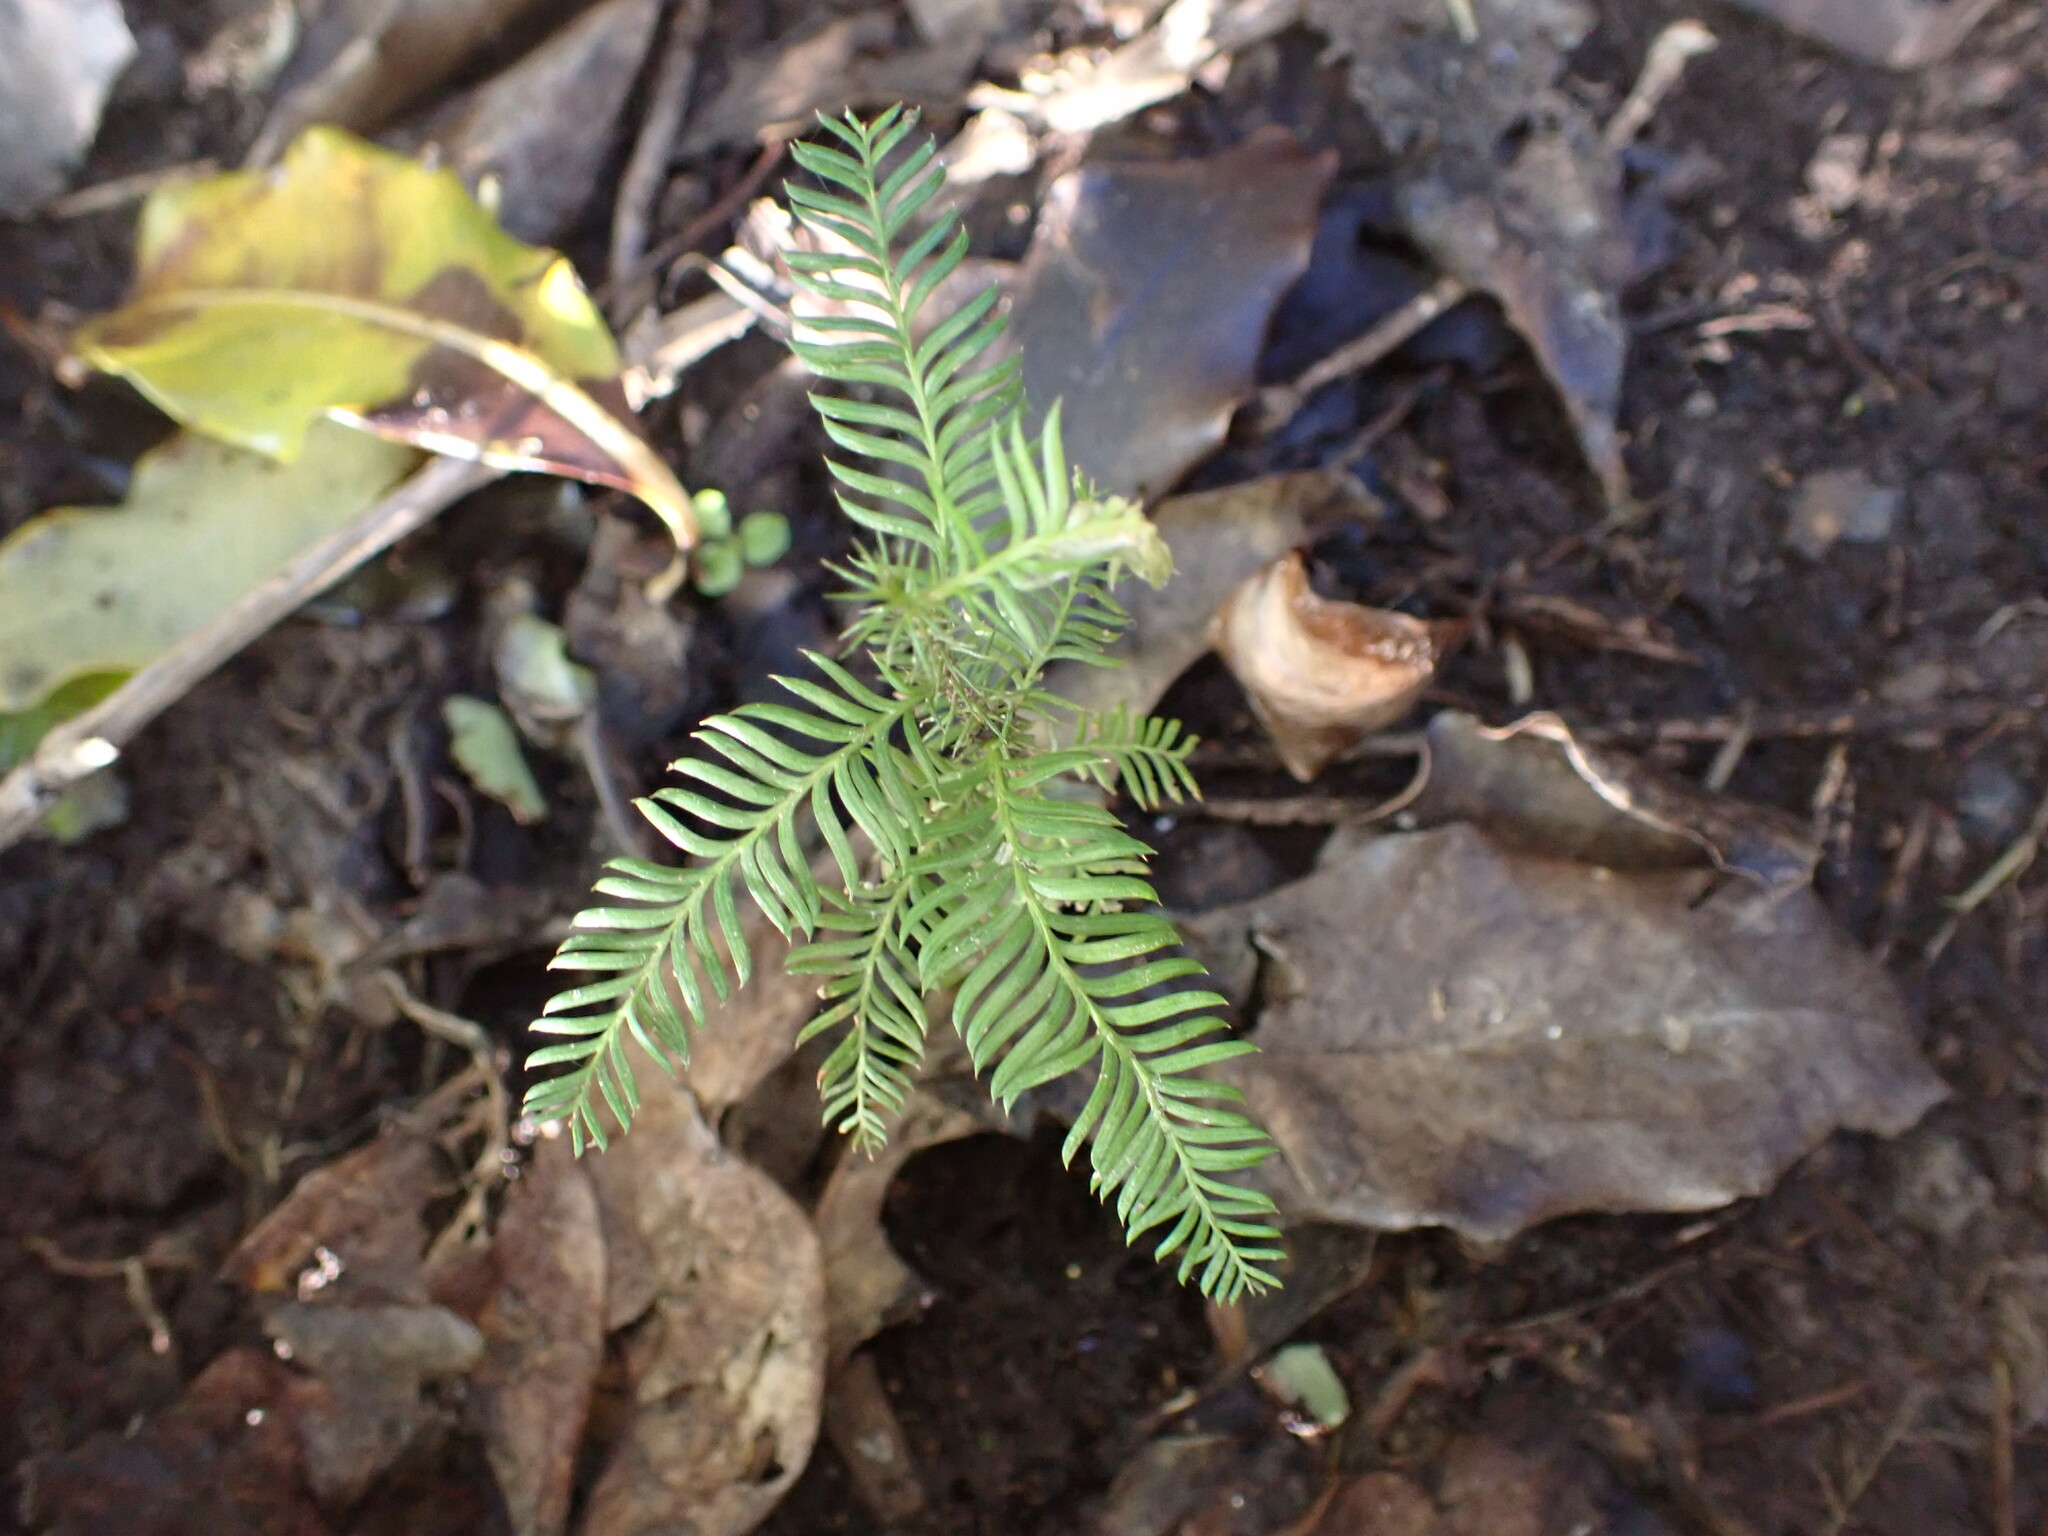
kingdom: Plantae
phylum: Tracheophyta
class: Pinopsida
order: Pinales
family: Podocarpaceae
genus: Dacrycarpus
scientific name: Dacrycarpus dacrydioides
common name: White pine
